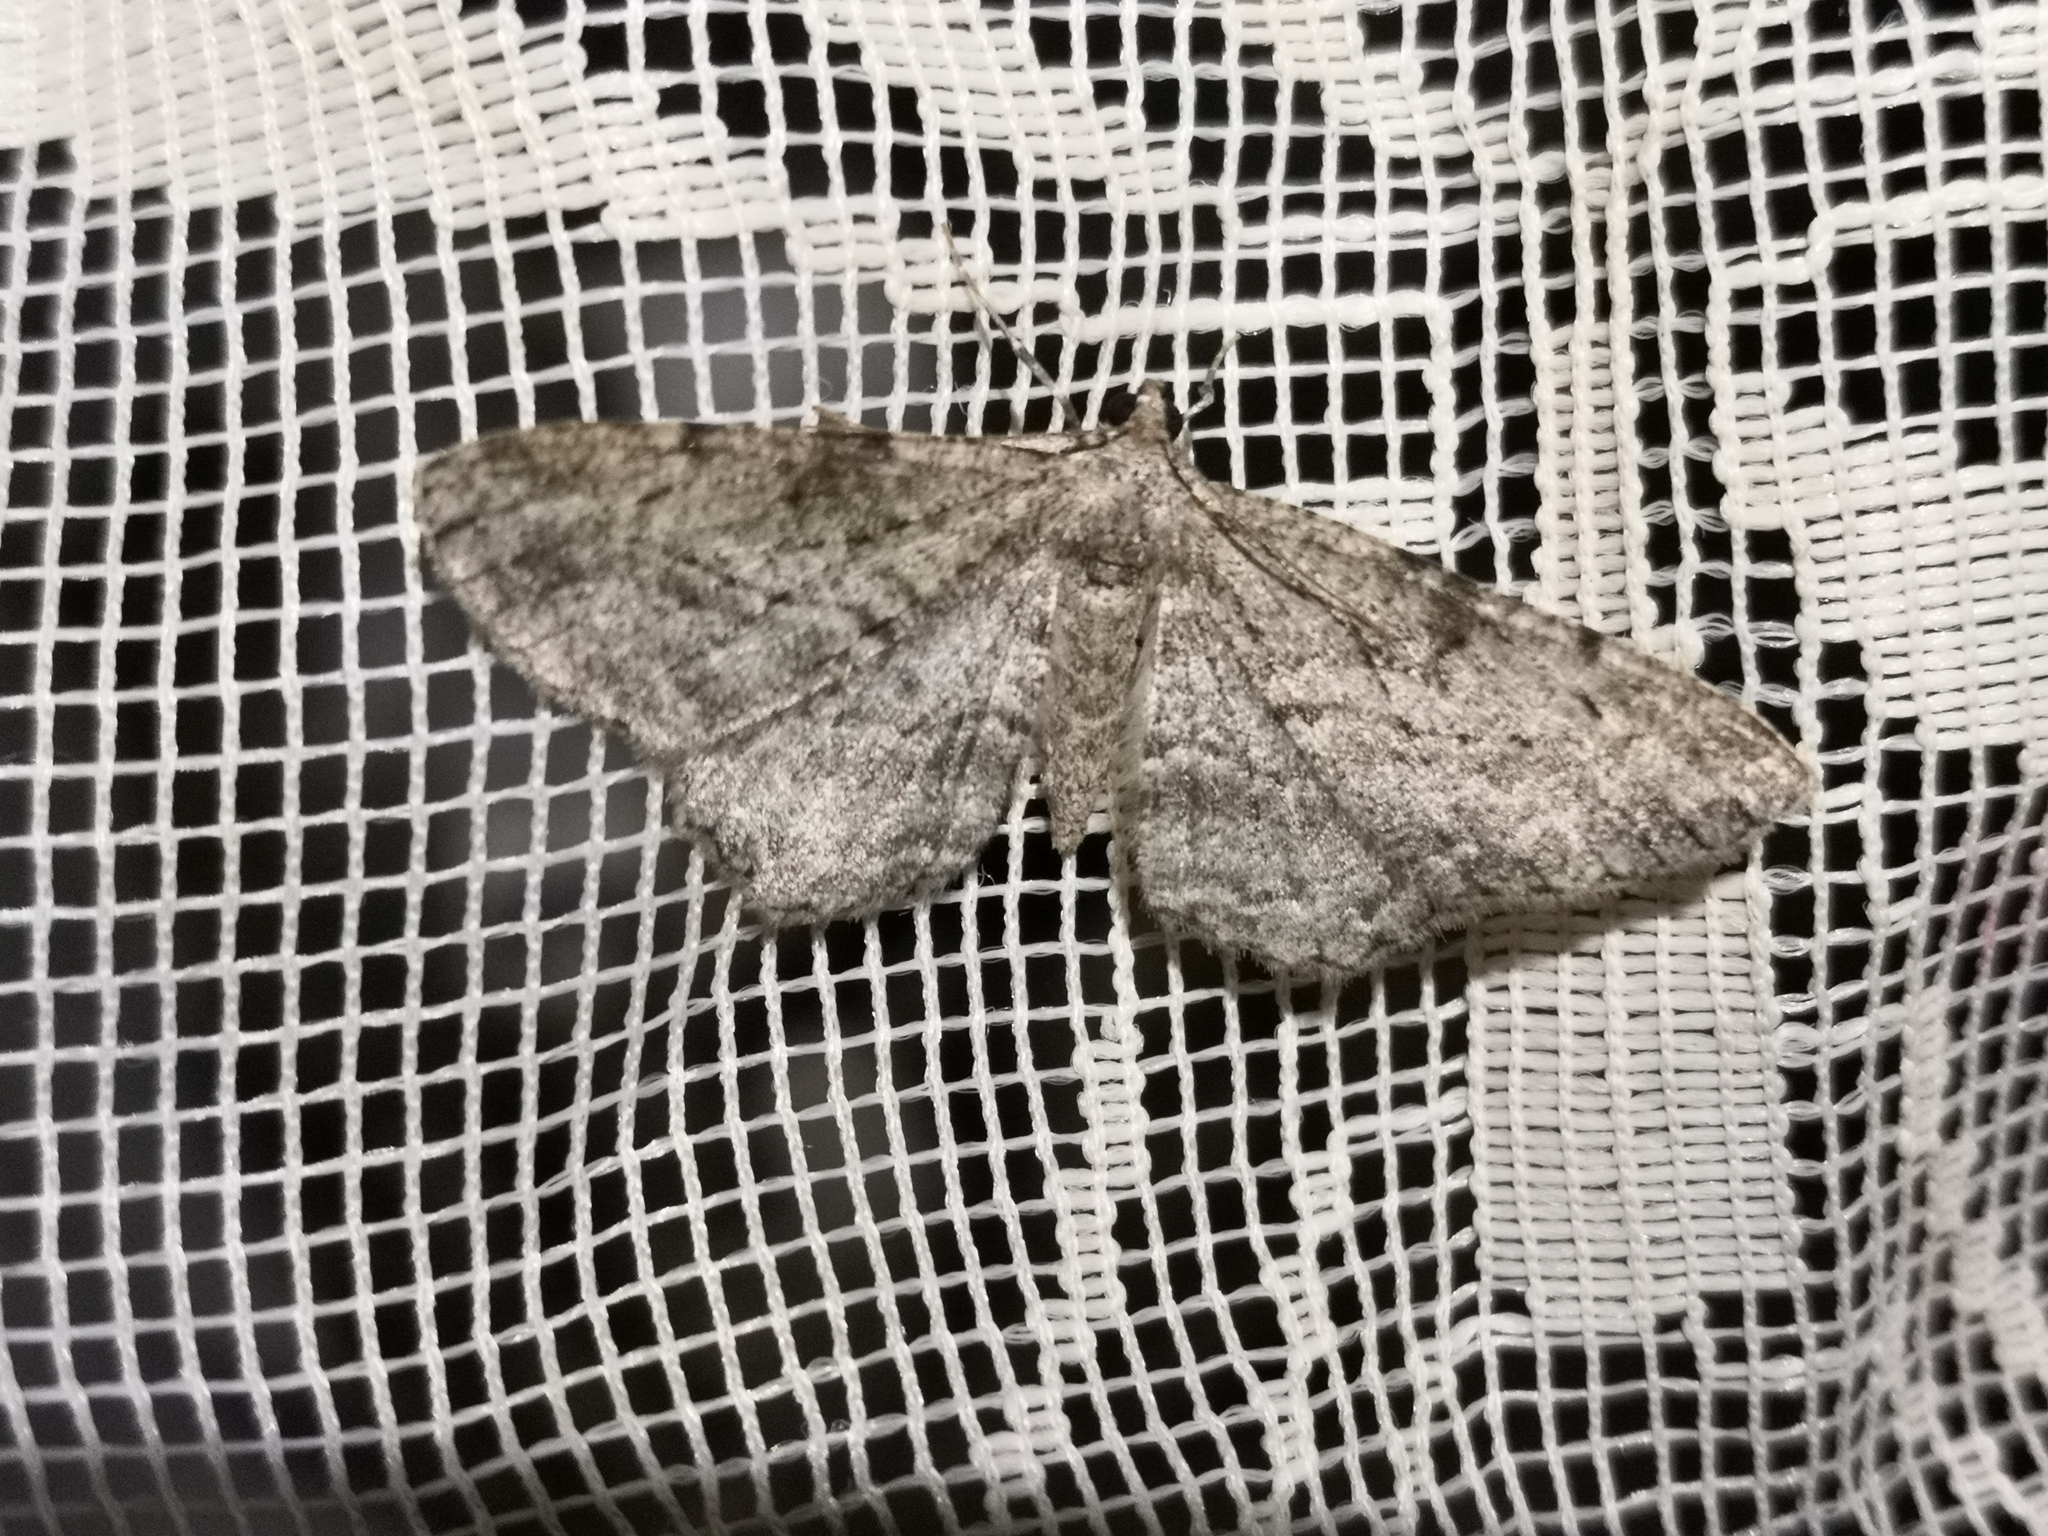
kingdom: Animalia
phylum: Arthropoda
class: Insecta
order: Lepidoptera
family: Geometridae
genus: Peribatodes
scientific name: Peribatodes rhomboidaria
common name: Willow beauty
